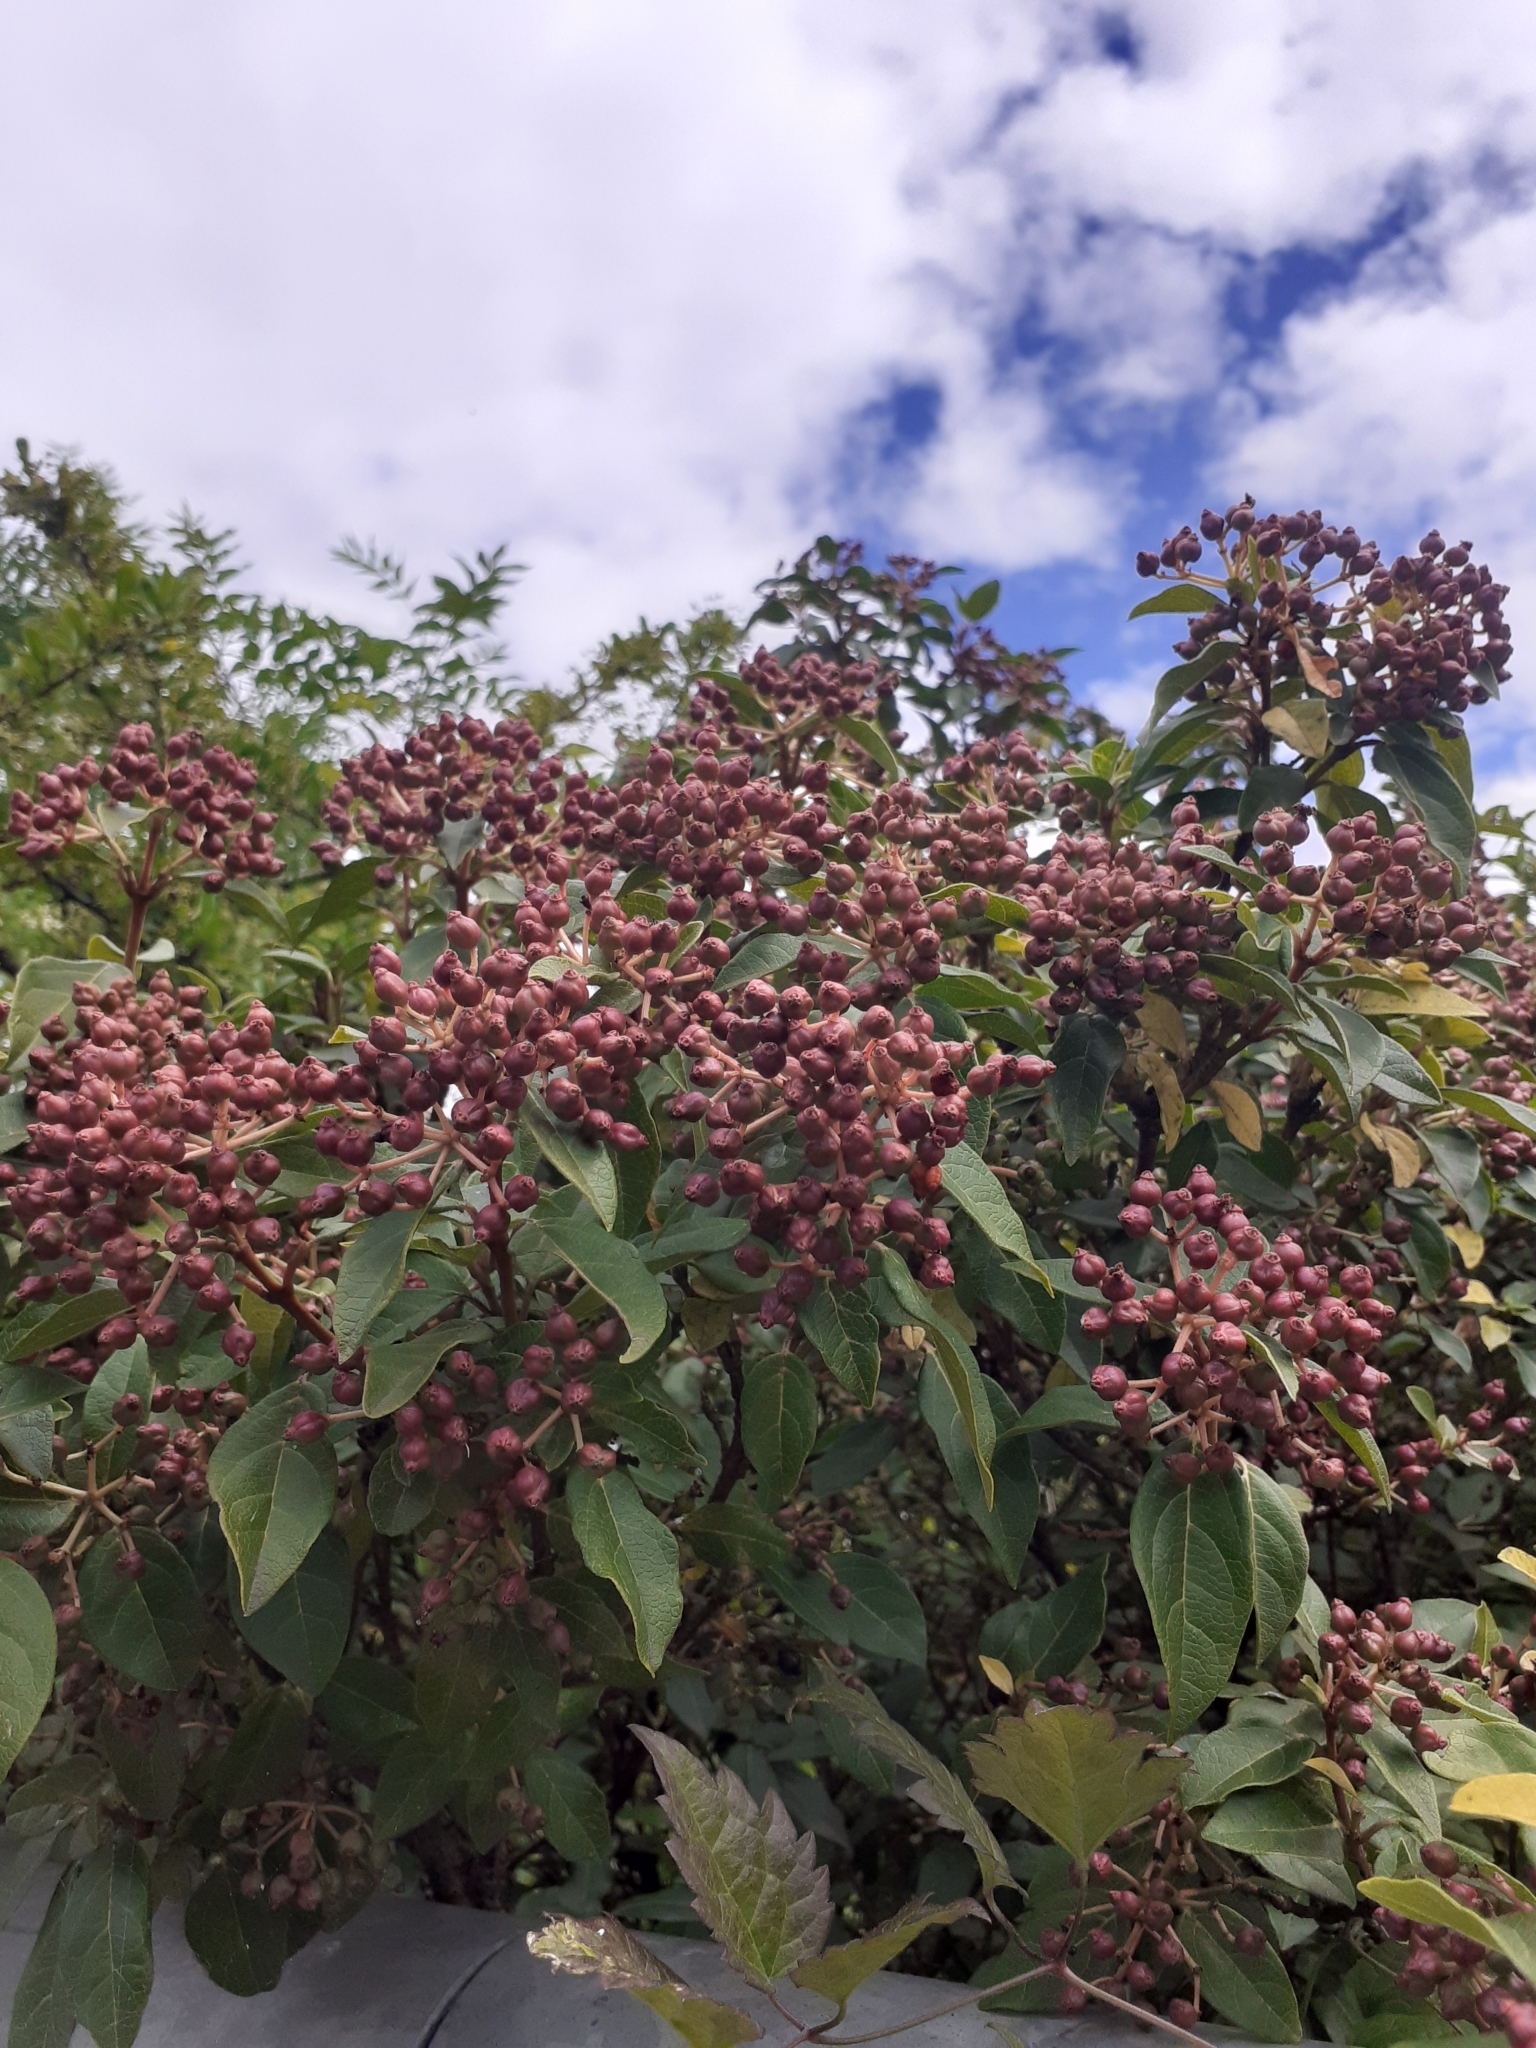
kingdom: Plantae
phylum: Tracheophyta
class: Magnoliopsida
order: Dipsacales
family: Viburnaceae
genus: Viburnum
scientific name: Viburnum tinus
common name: Laurustinus
